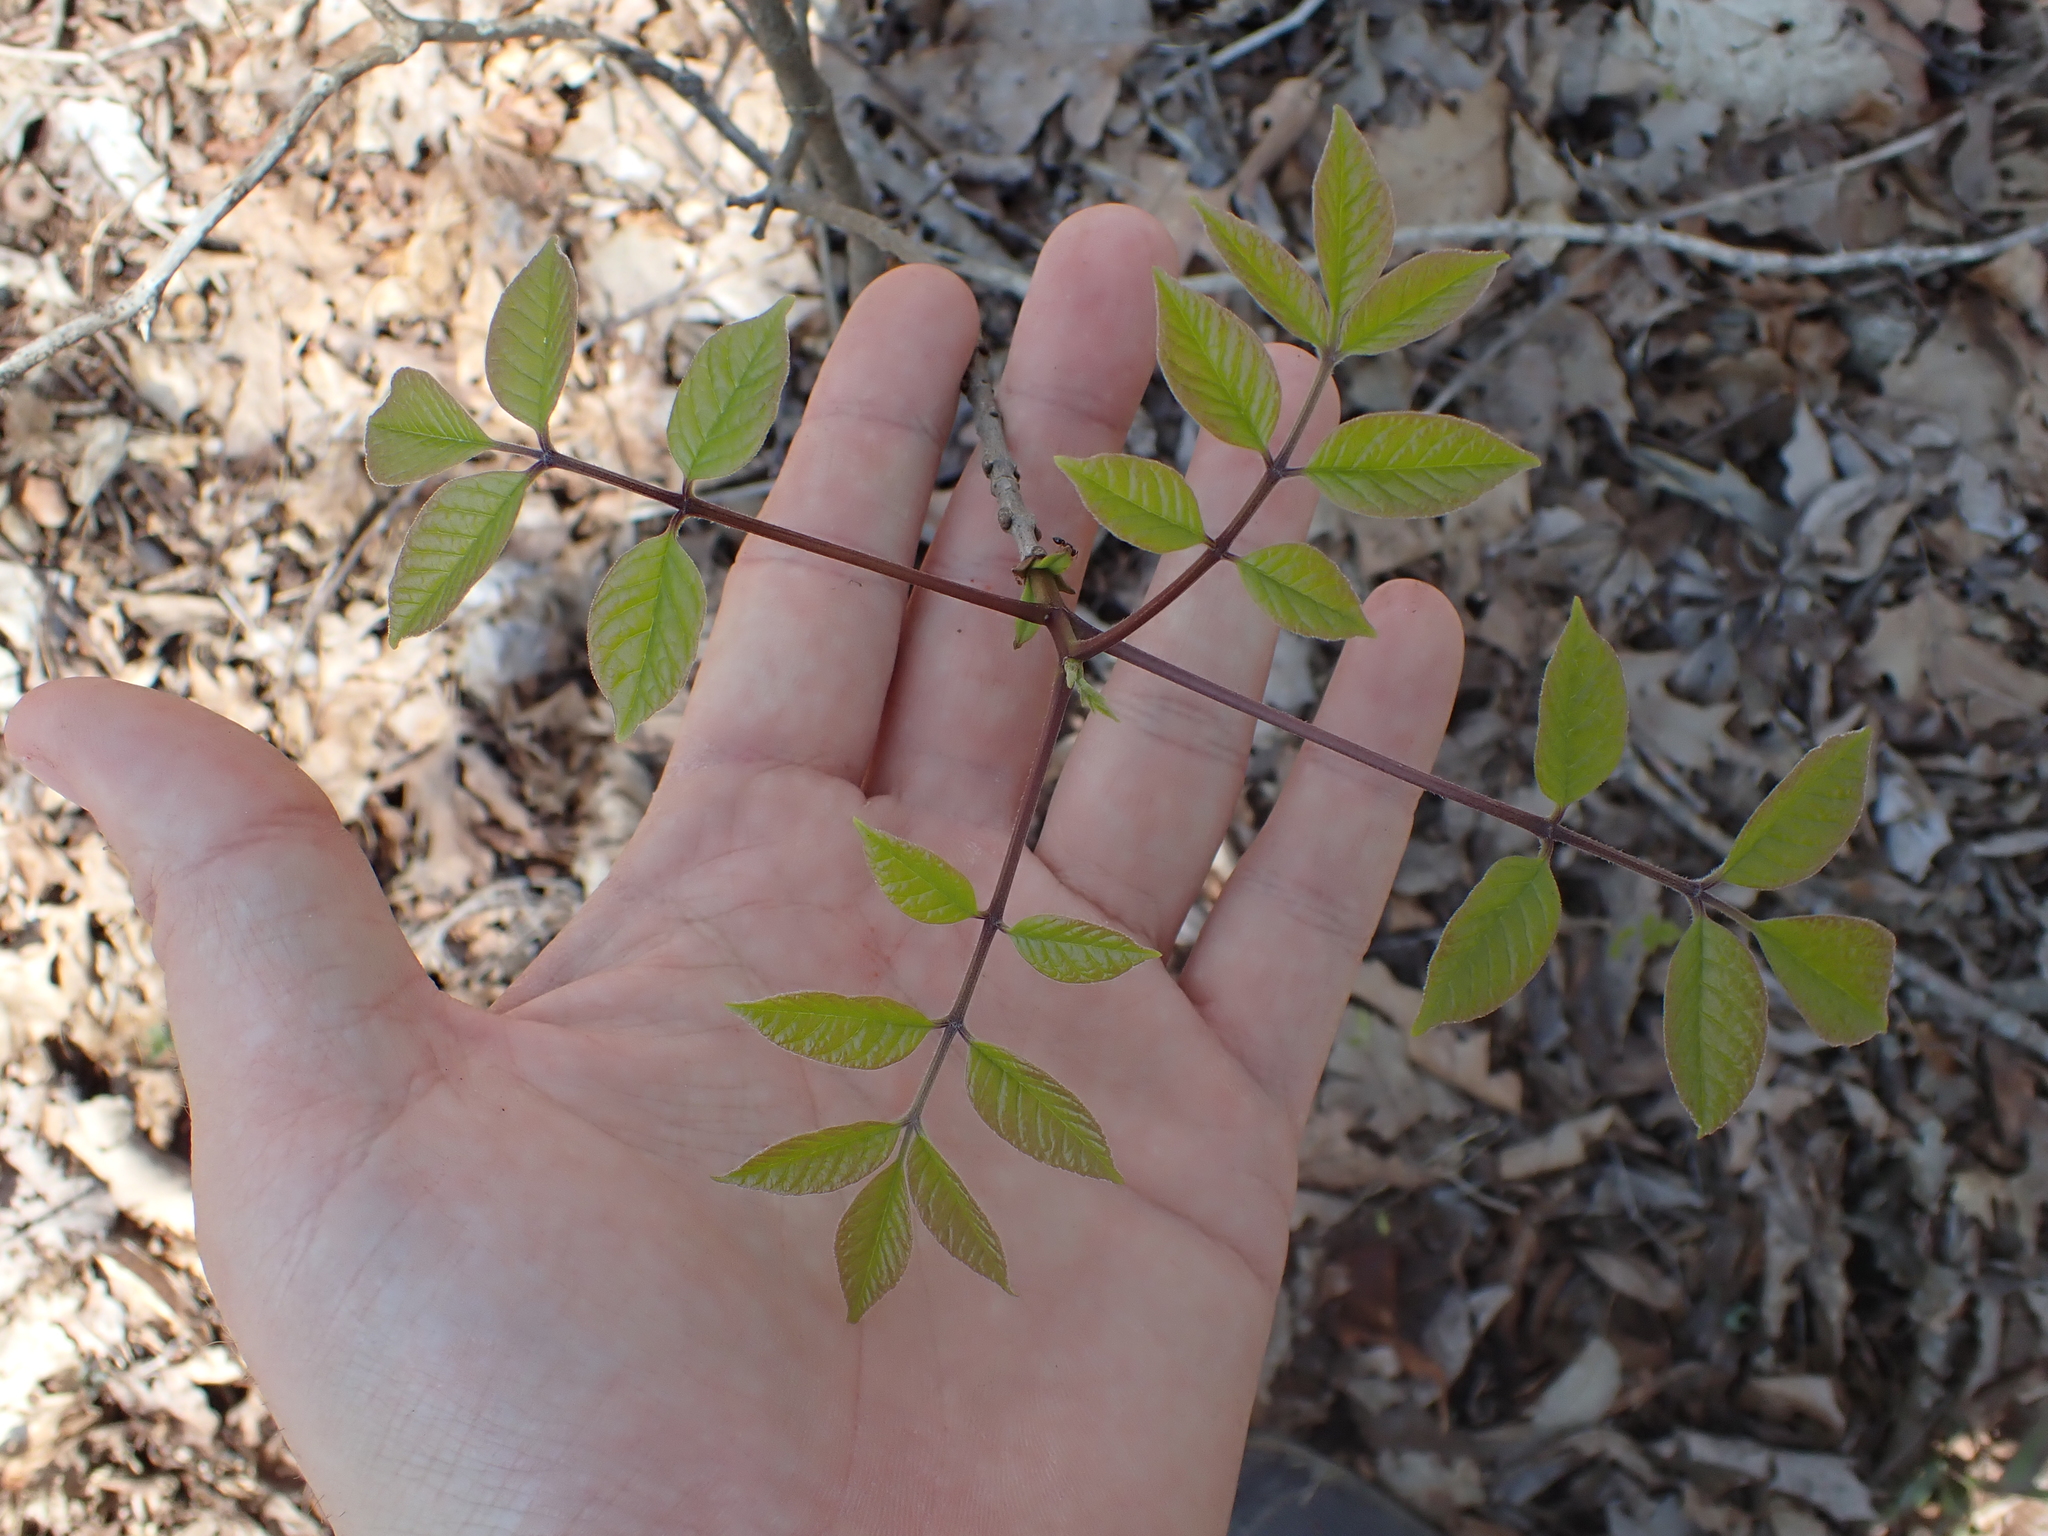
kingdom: Plantae
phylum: Tracheophyta
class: Magnoliopsida
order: Lamiales
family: Oleaceae
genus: Fraxinus
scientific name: Fraxinus quadrangulata
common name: Blue ash
